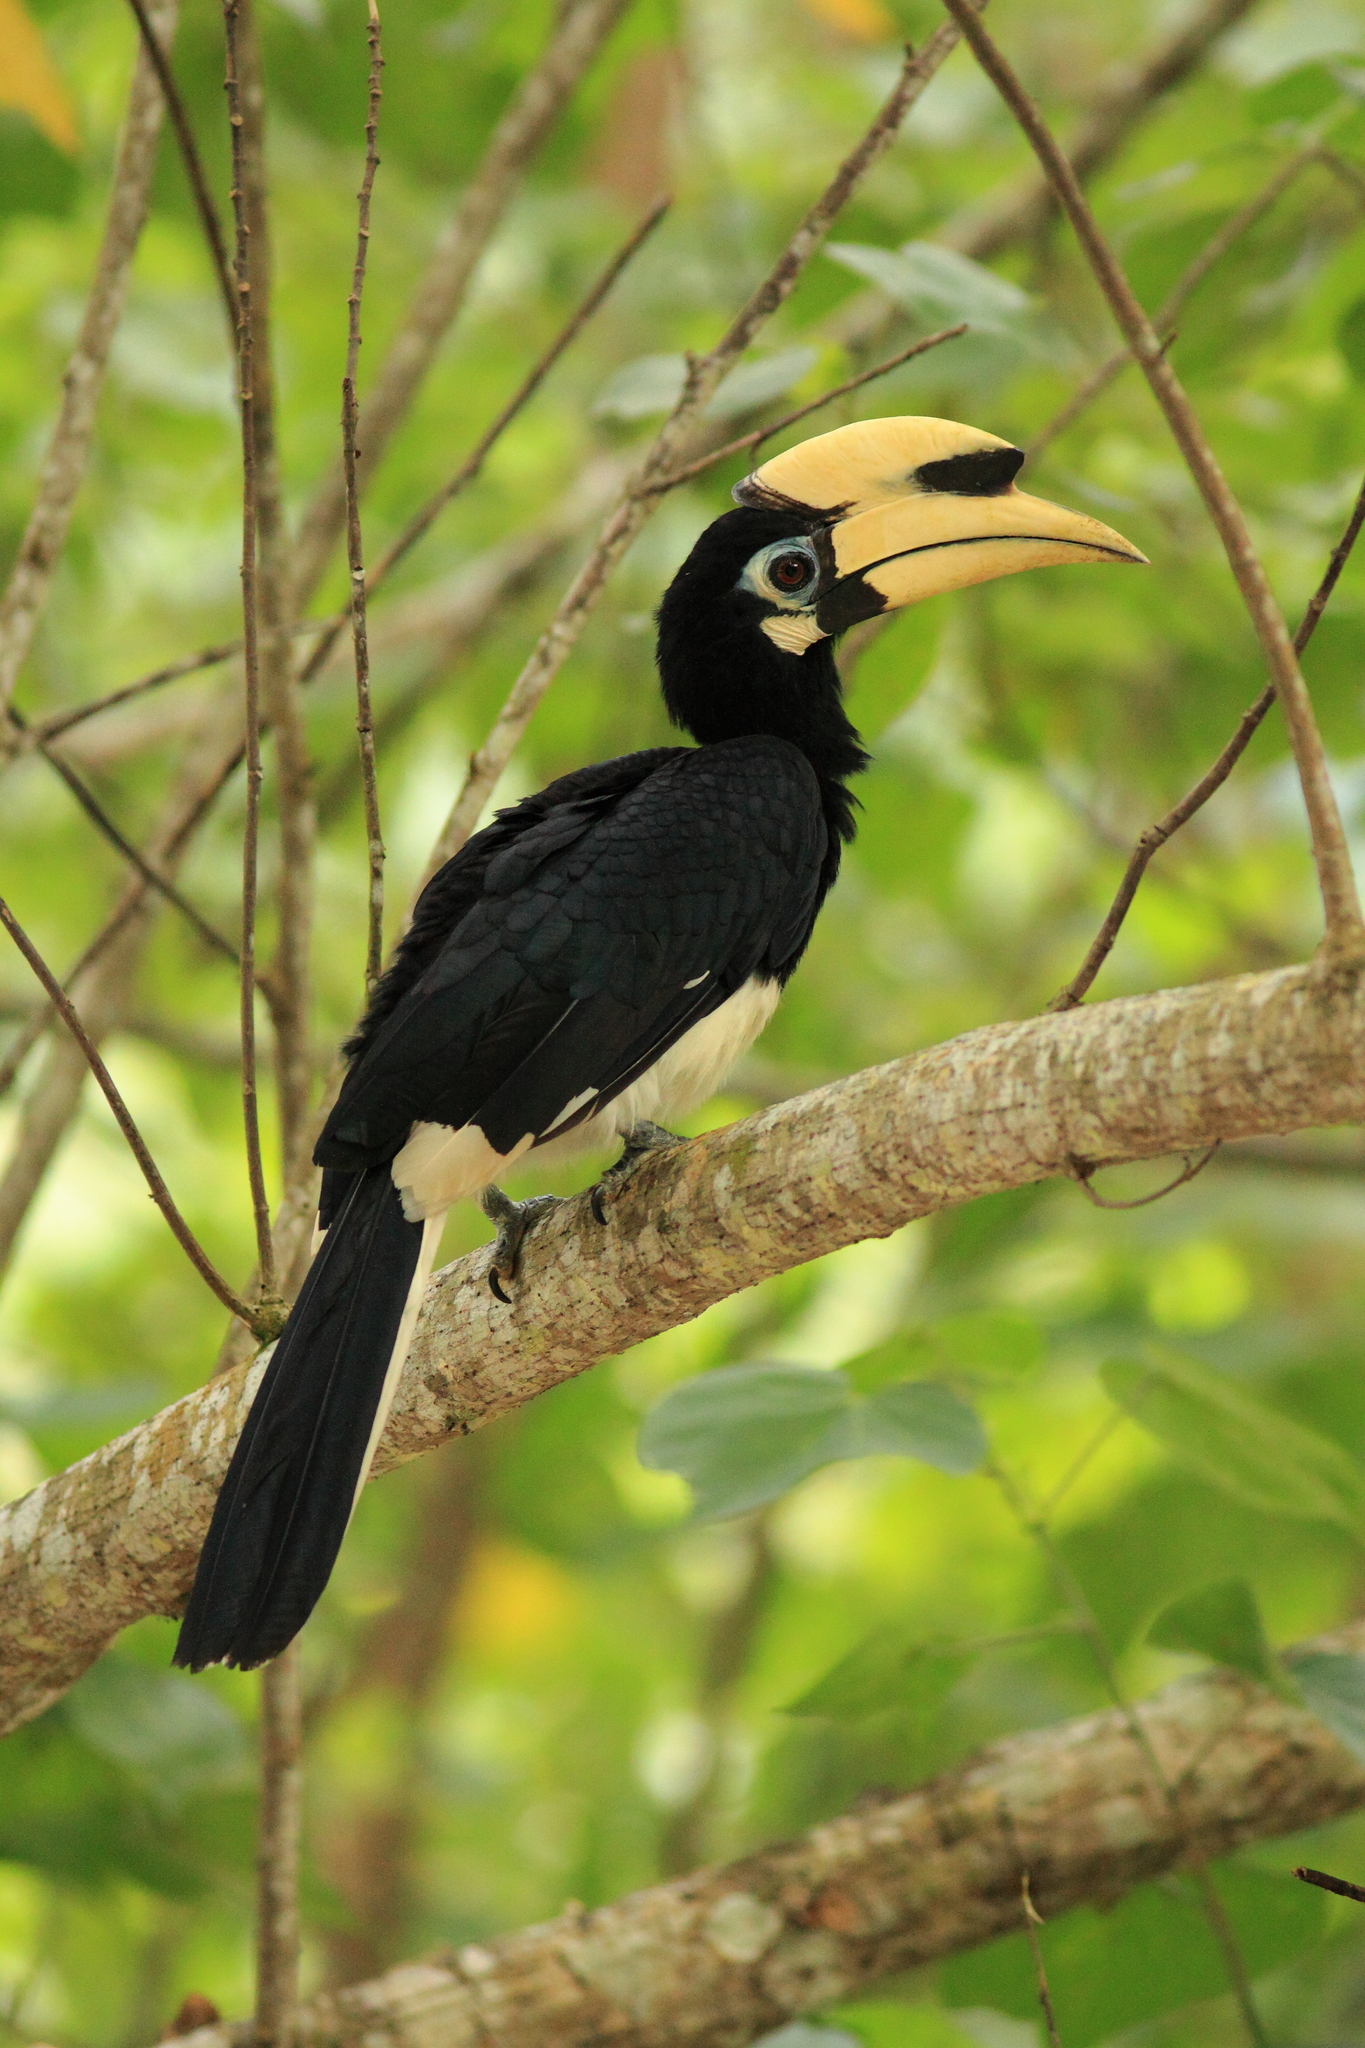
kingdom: Animalia
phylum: Chordata
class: Aves
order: Bucerotiformes
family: Bucerotidae
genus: Anthracoceros
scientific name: Anthracoceros albirostris
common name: Oriental pied-hornbill
